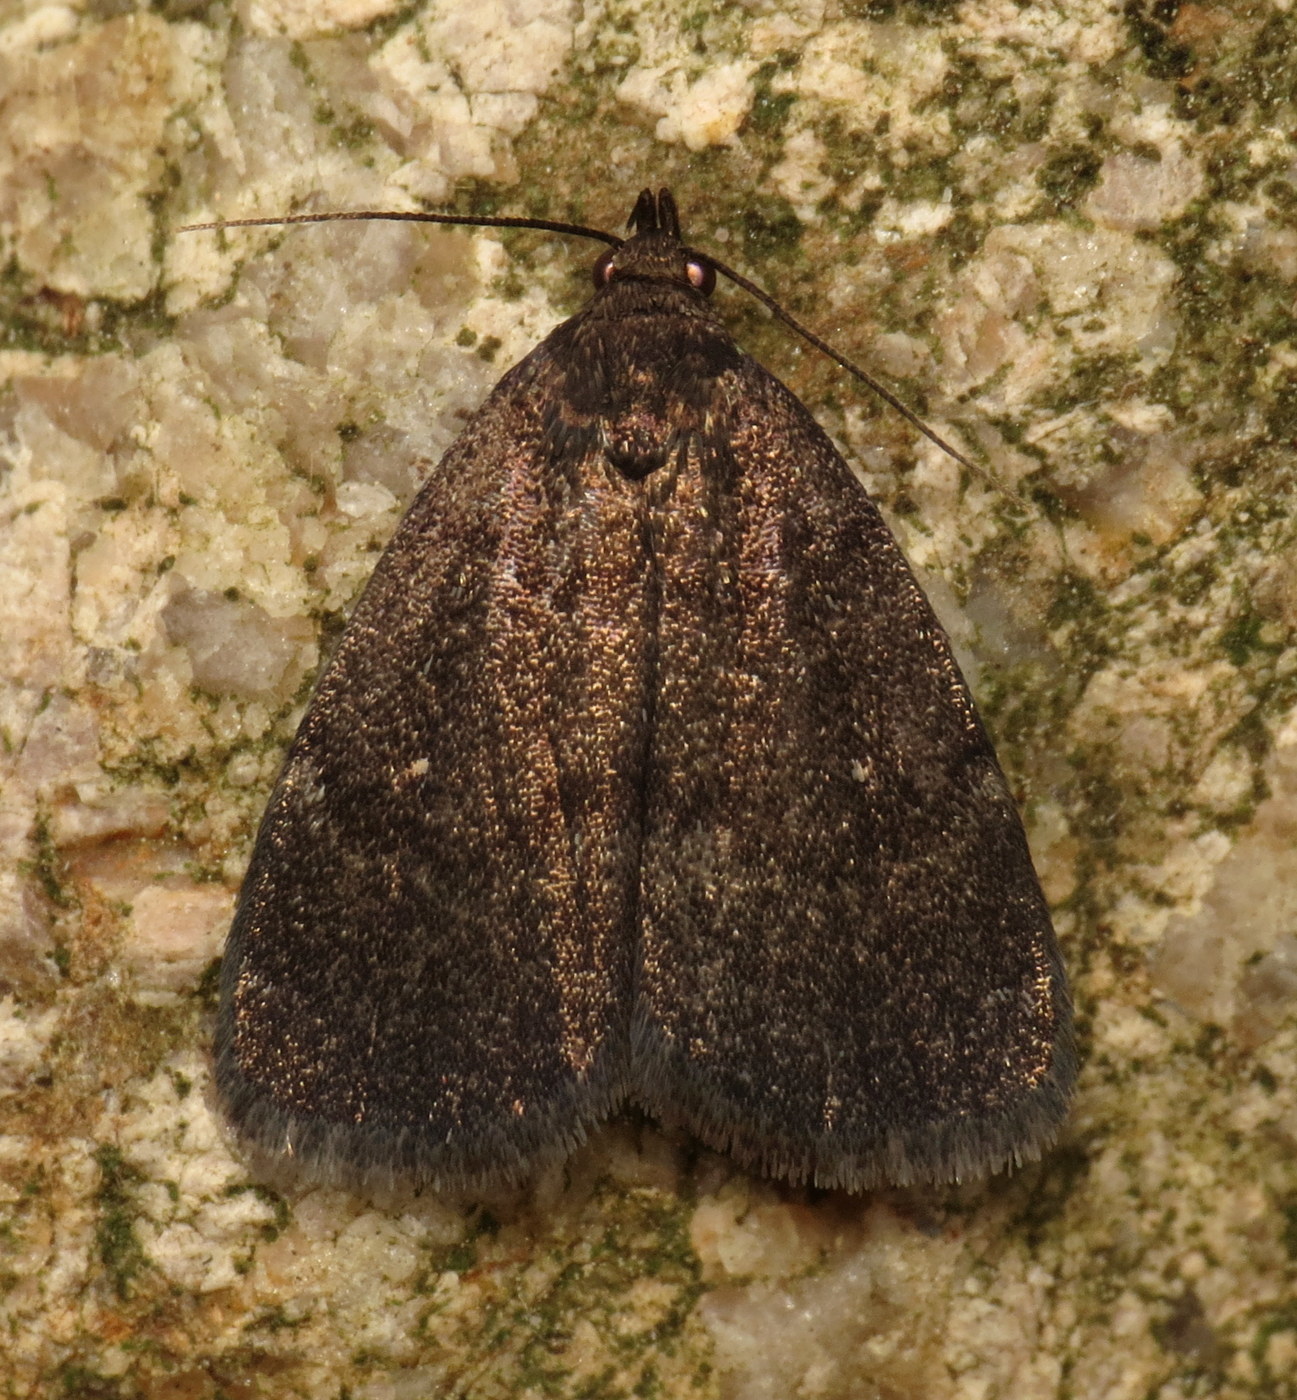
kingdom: Animalia
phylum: Arthropoda
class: Insecta
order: Lepidoptera
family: Erebidae
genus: Idia
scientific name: Idia rotundalis
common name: Rotund idia moth
